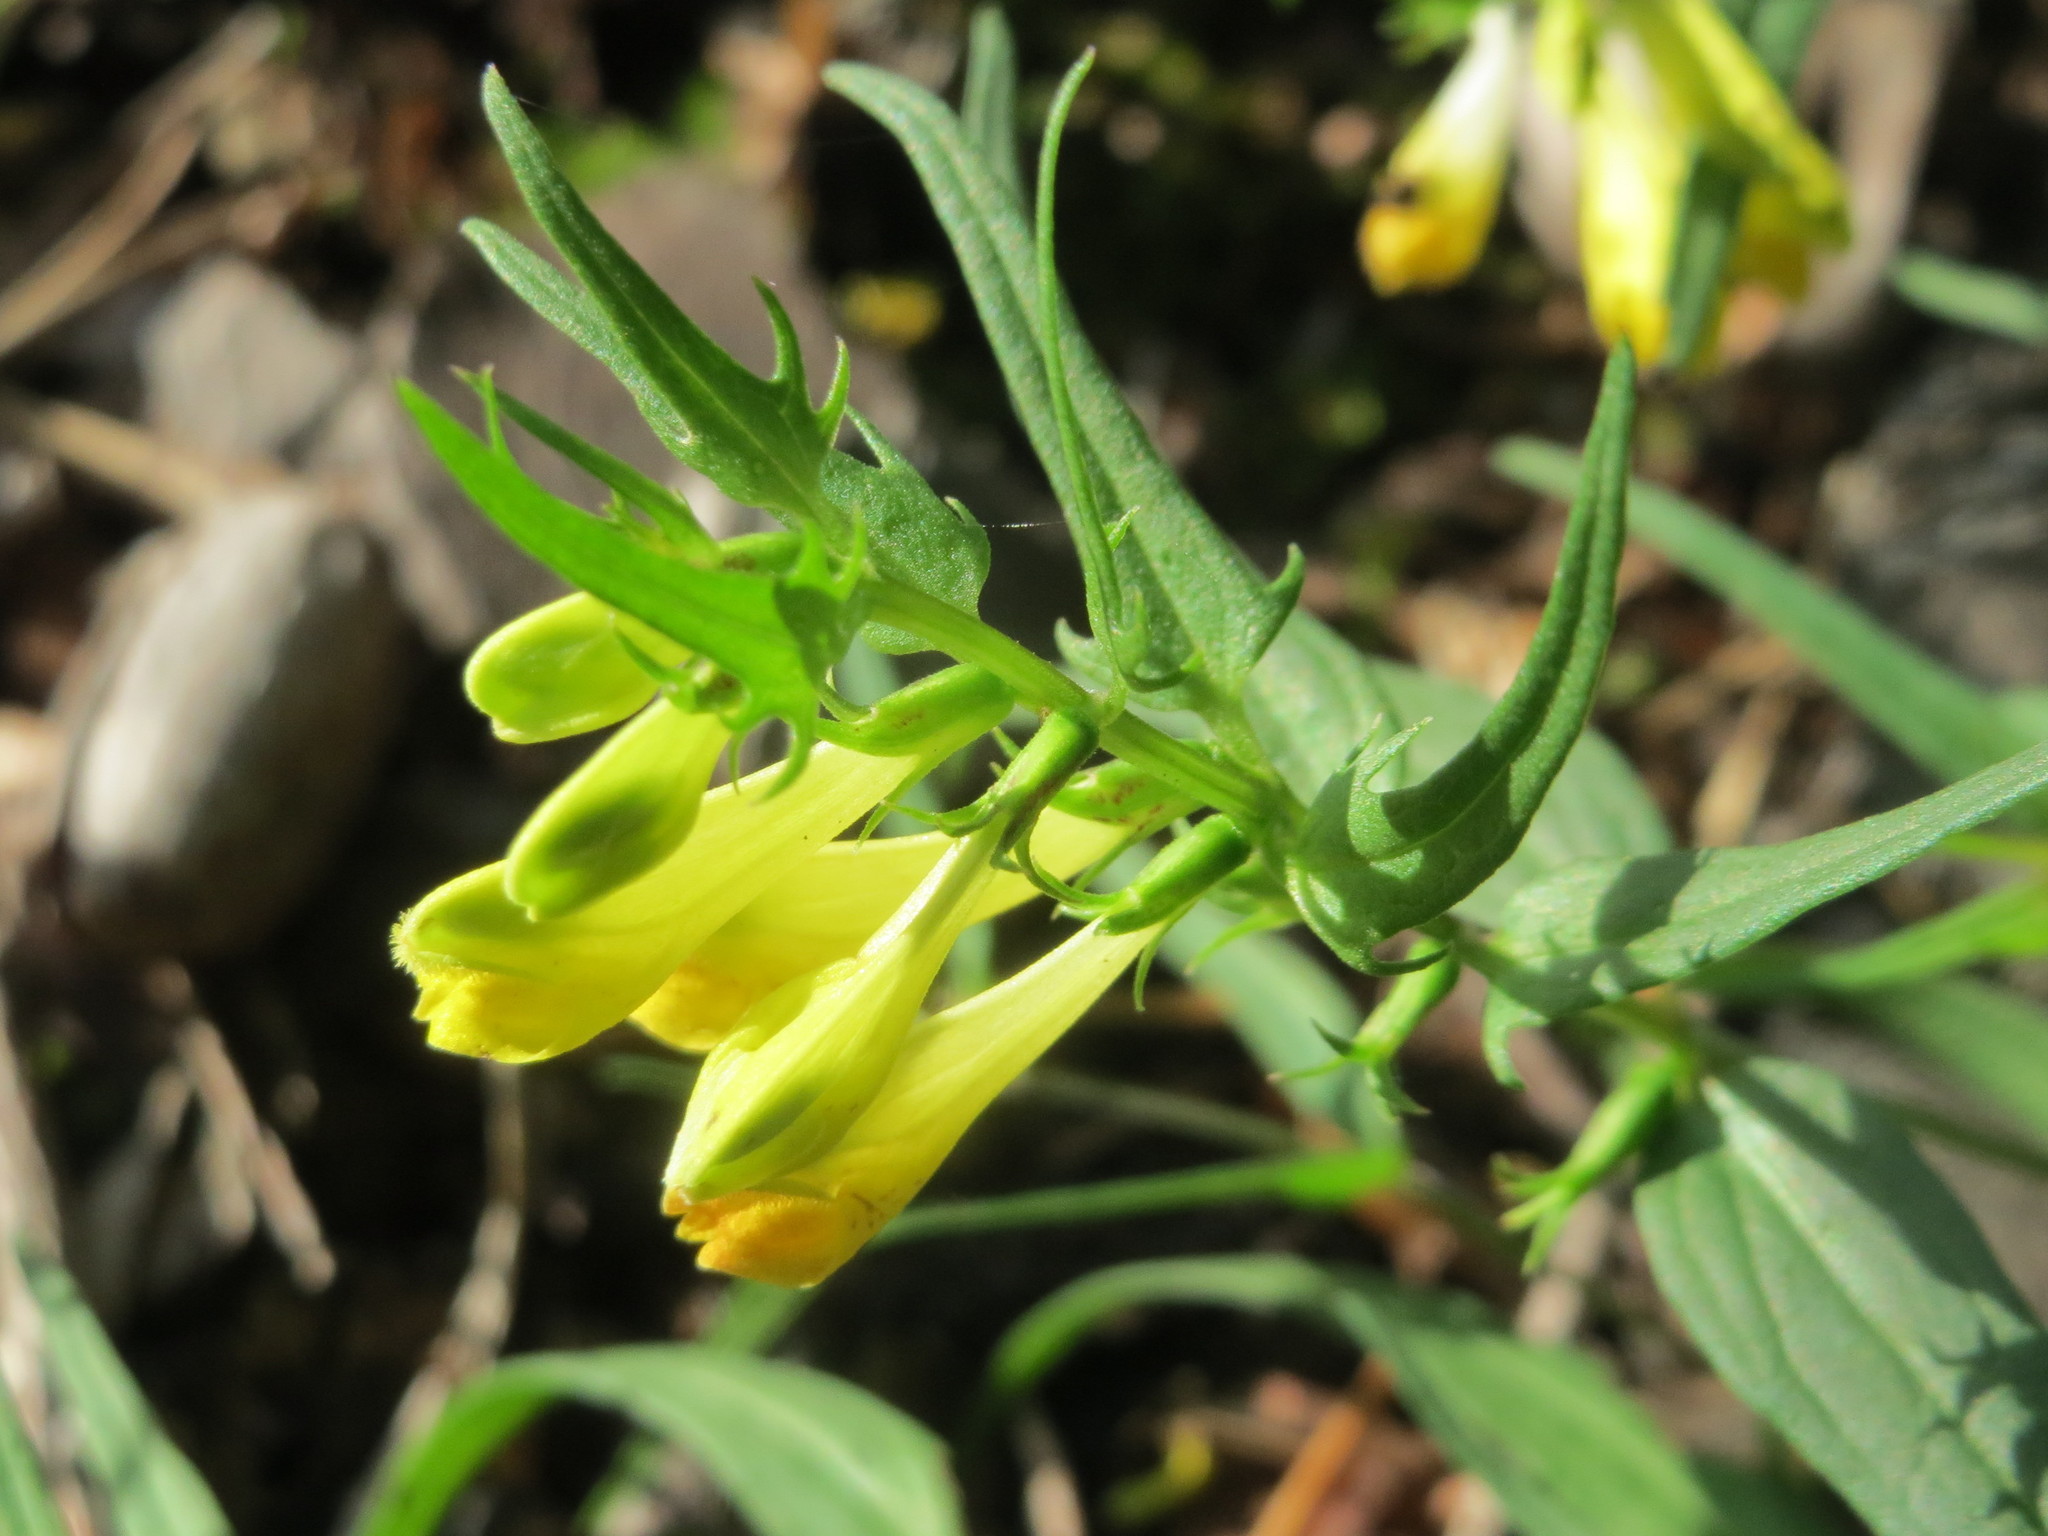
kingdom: Plantae
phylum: Tracheophyta
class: Magnoliopsida
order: Lamiales
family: Orobanchaceae
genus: Melampyrum
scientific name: Melampyrum pratense
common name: Common cow-wheat
